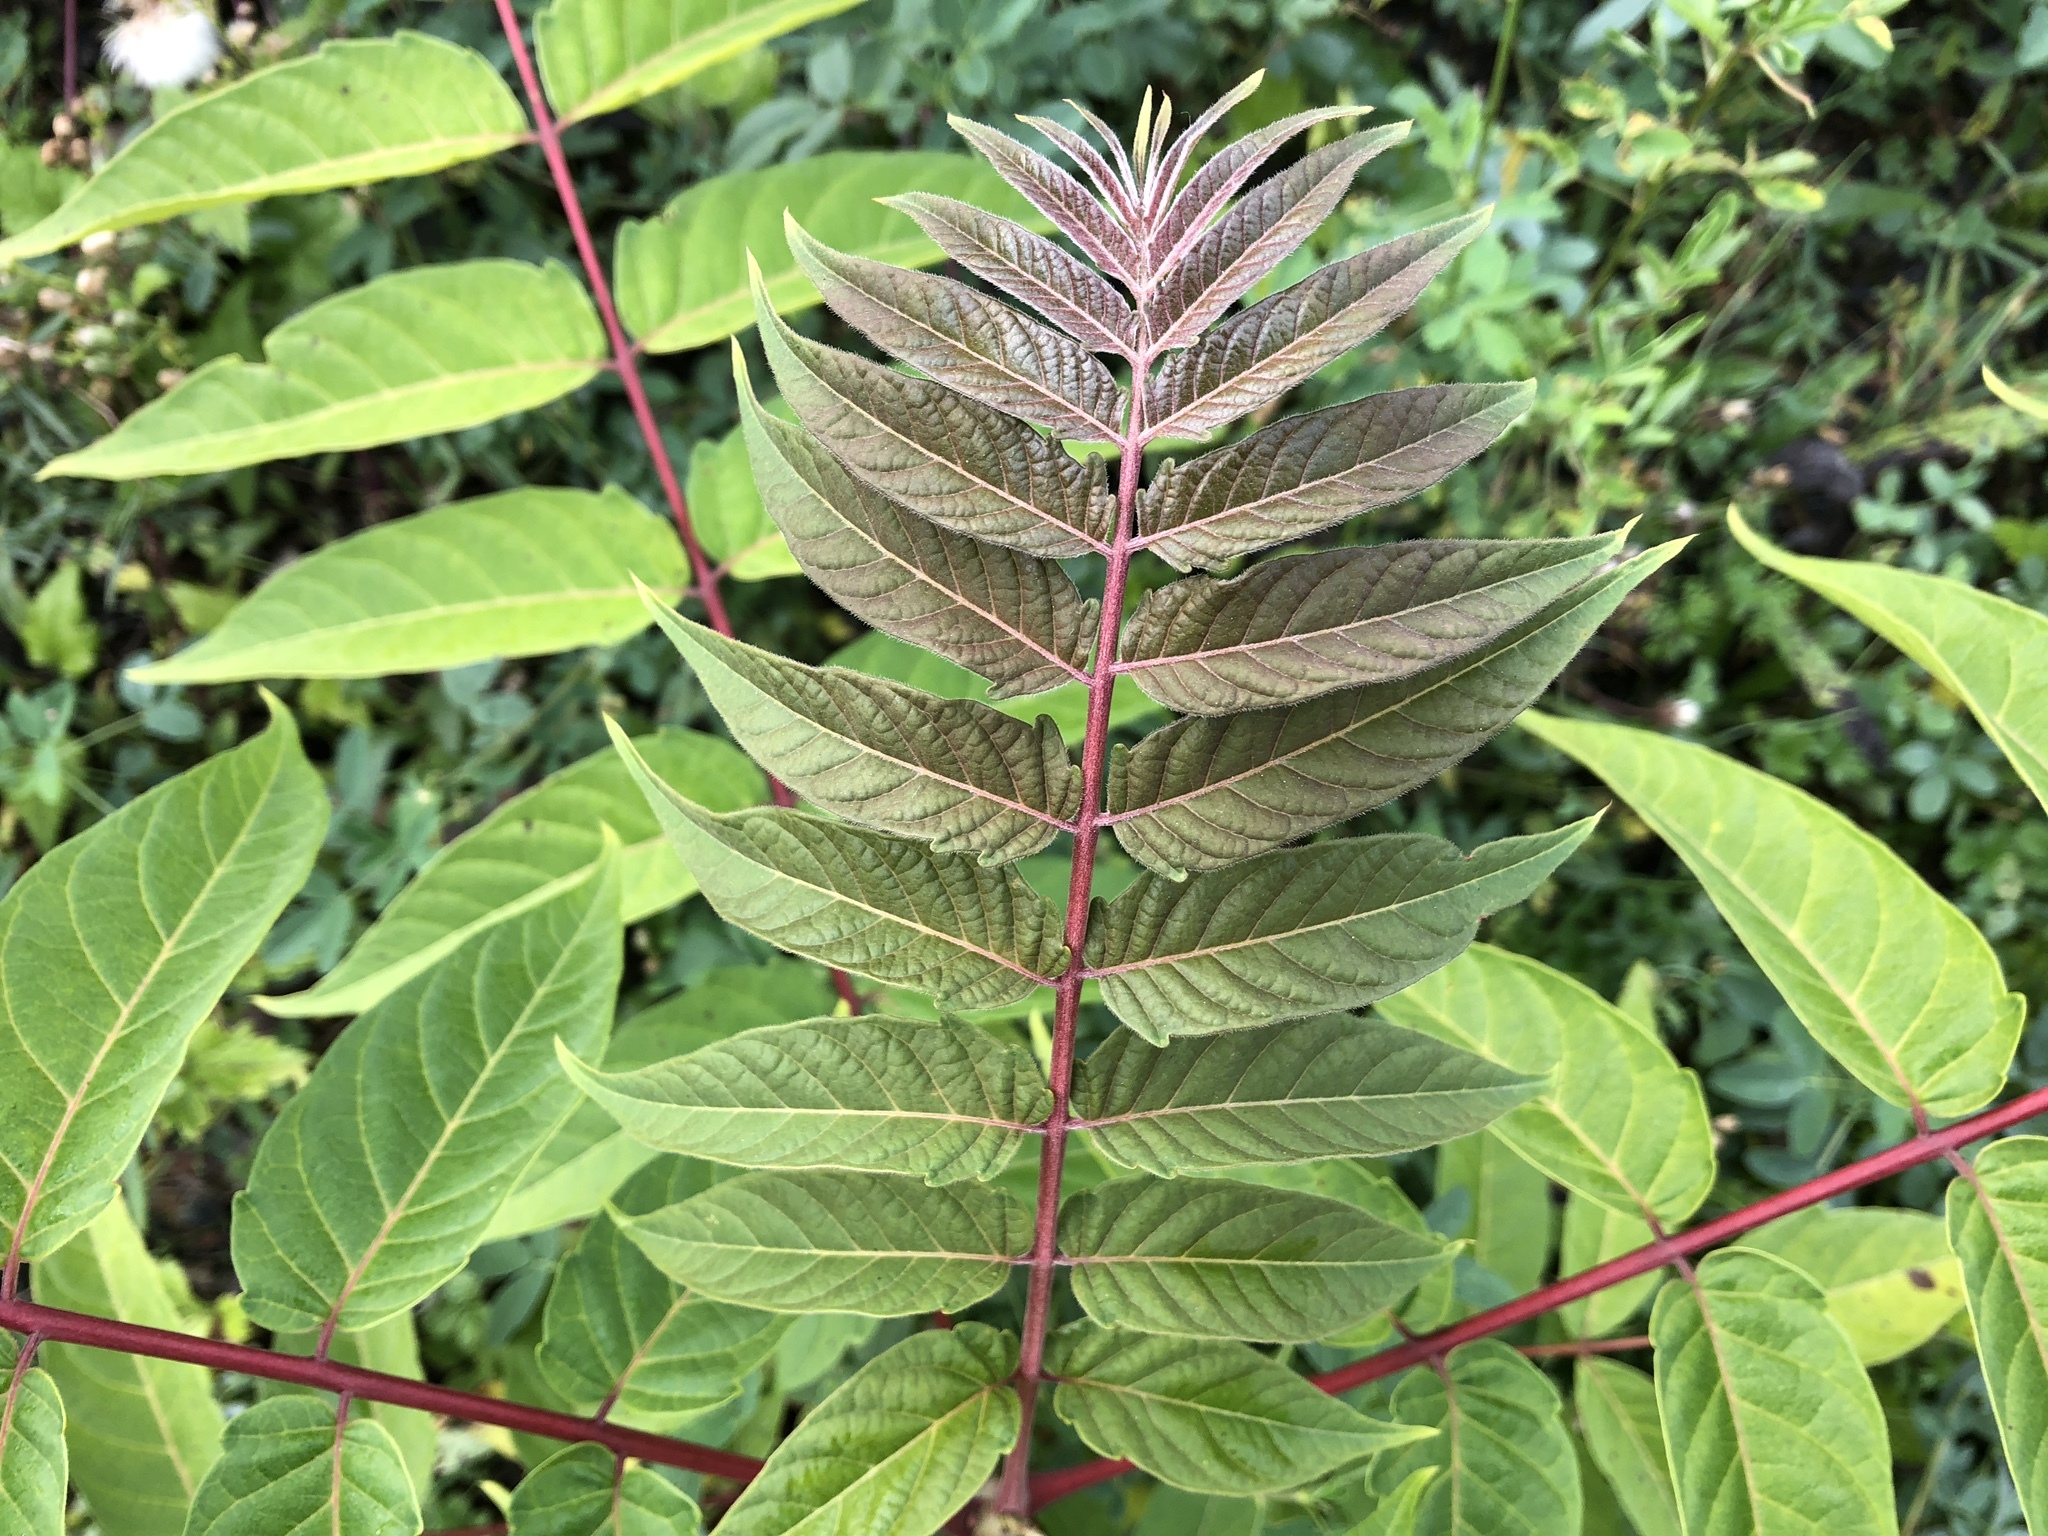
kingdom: Plantae
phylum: Tracheophyta
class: Magnoliopsida
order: Sapindales
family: Simaroubaceae
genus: Ailanthus
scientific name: Ailanthus altissima
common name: Tree-of-heaven
